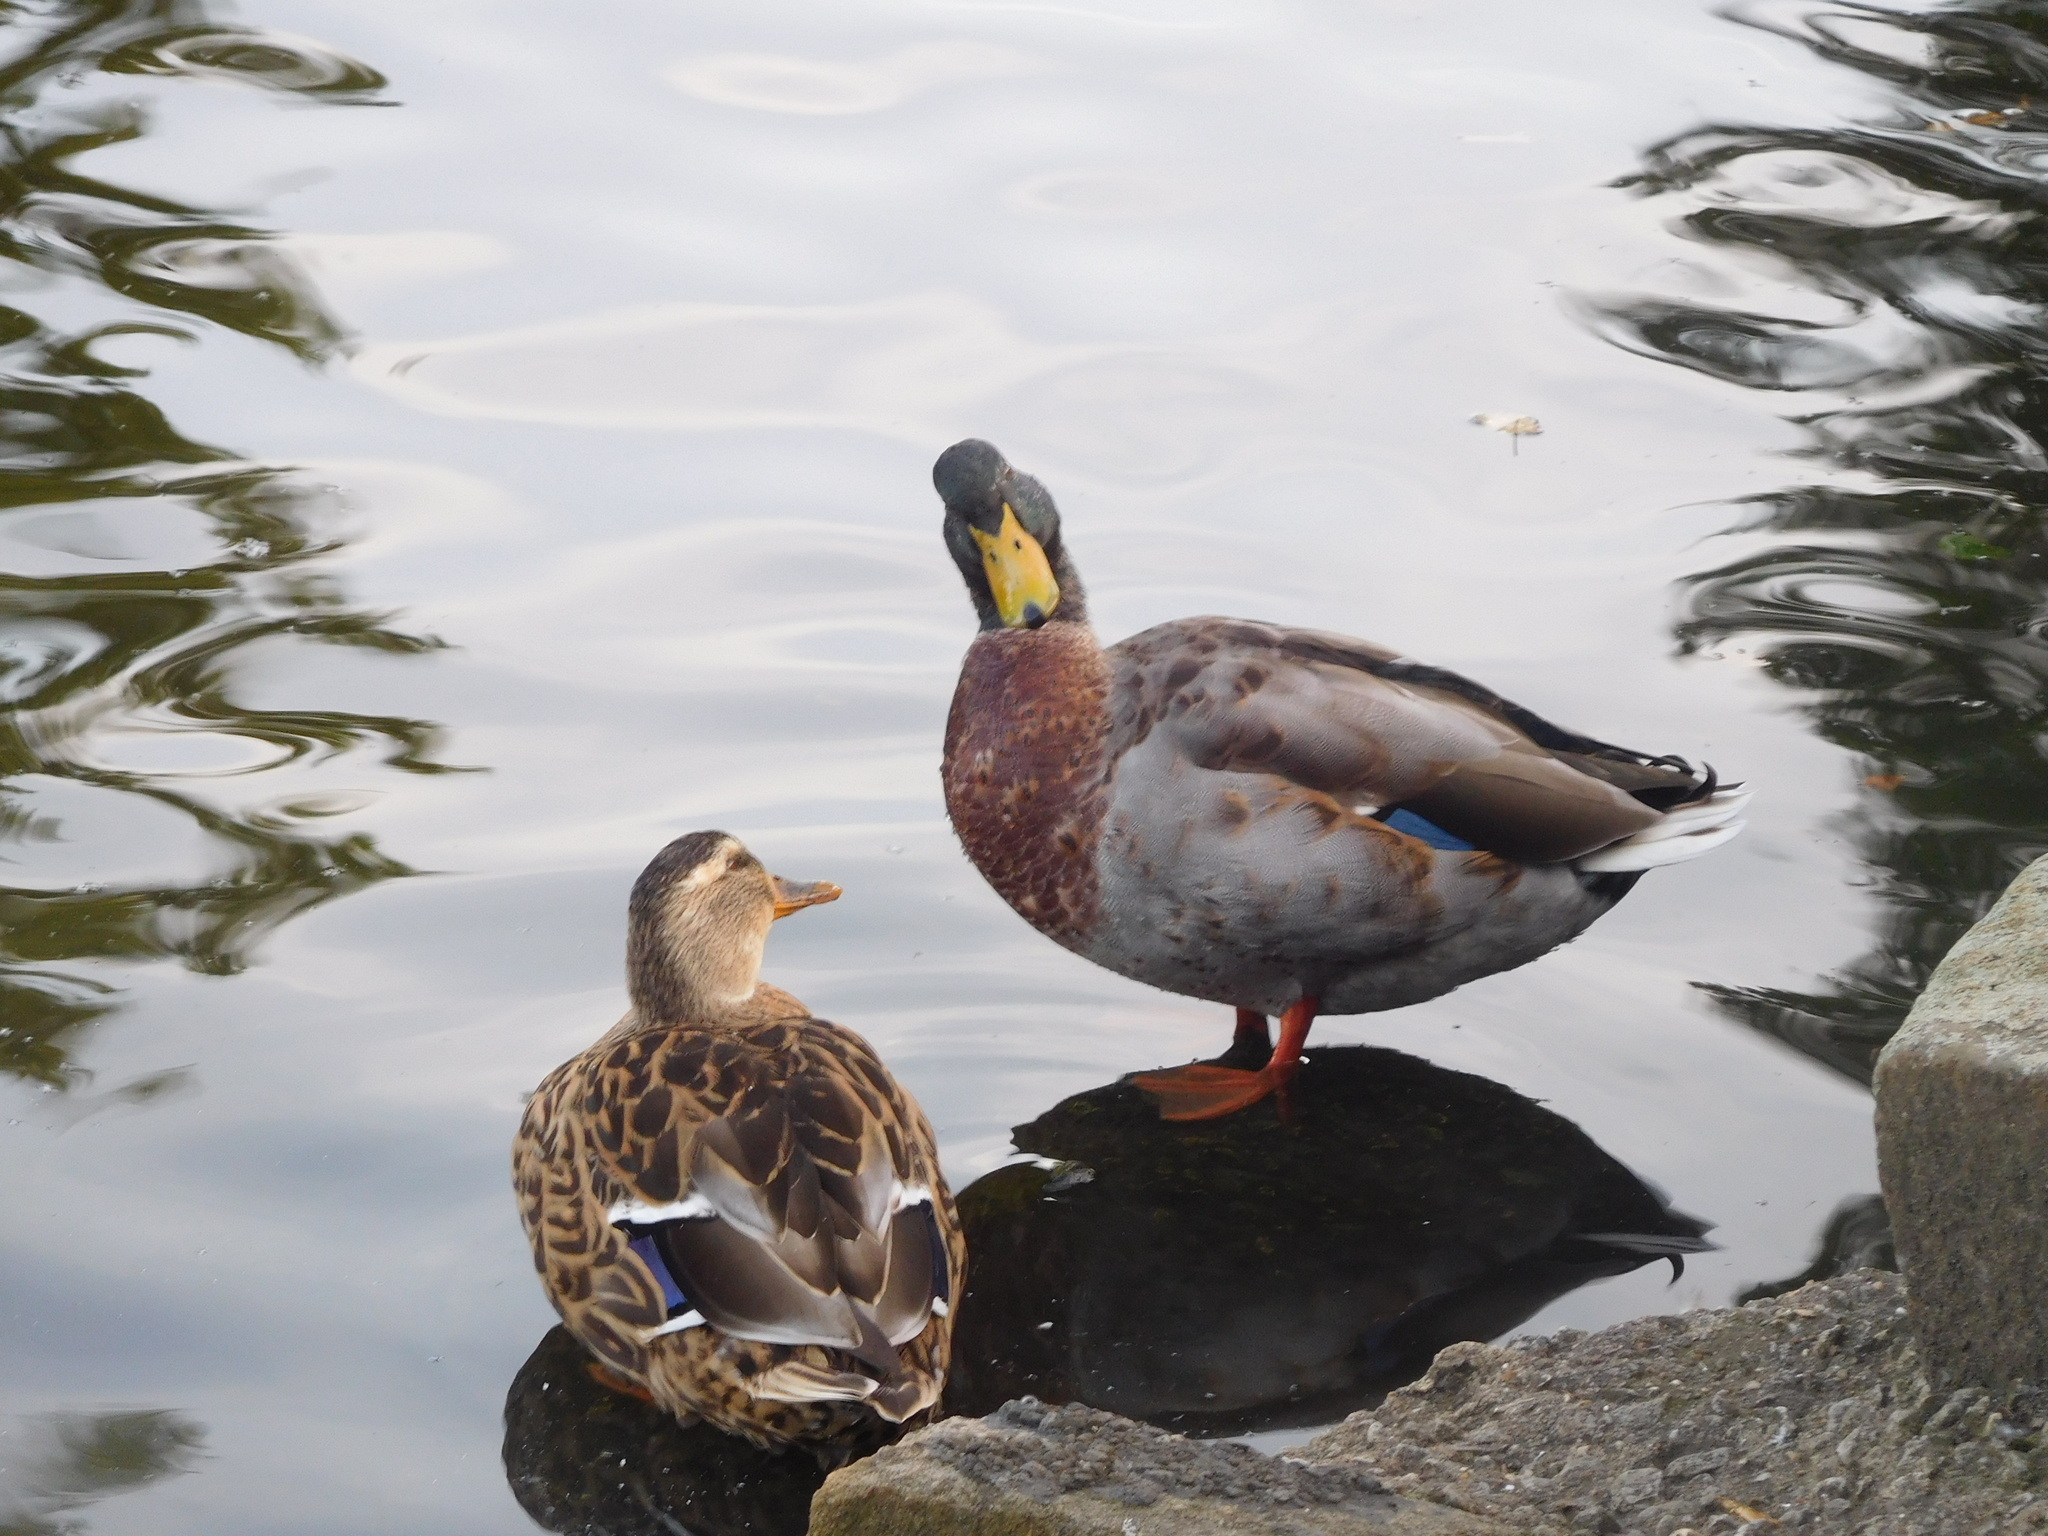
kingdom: Animalia
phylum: Chordata
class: Aves
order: Anseriformes
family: Anatidae
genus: Anas
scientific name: Anas platyrhynchos
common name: Mallard
